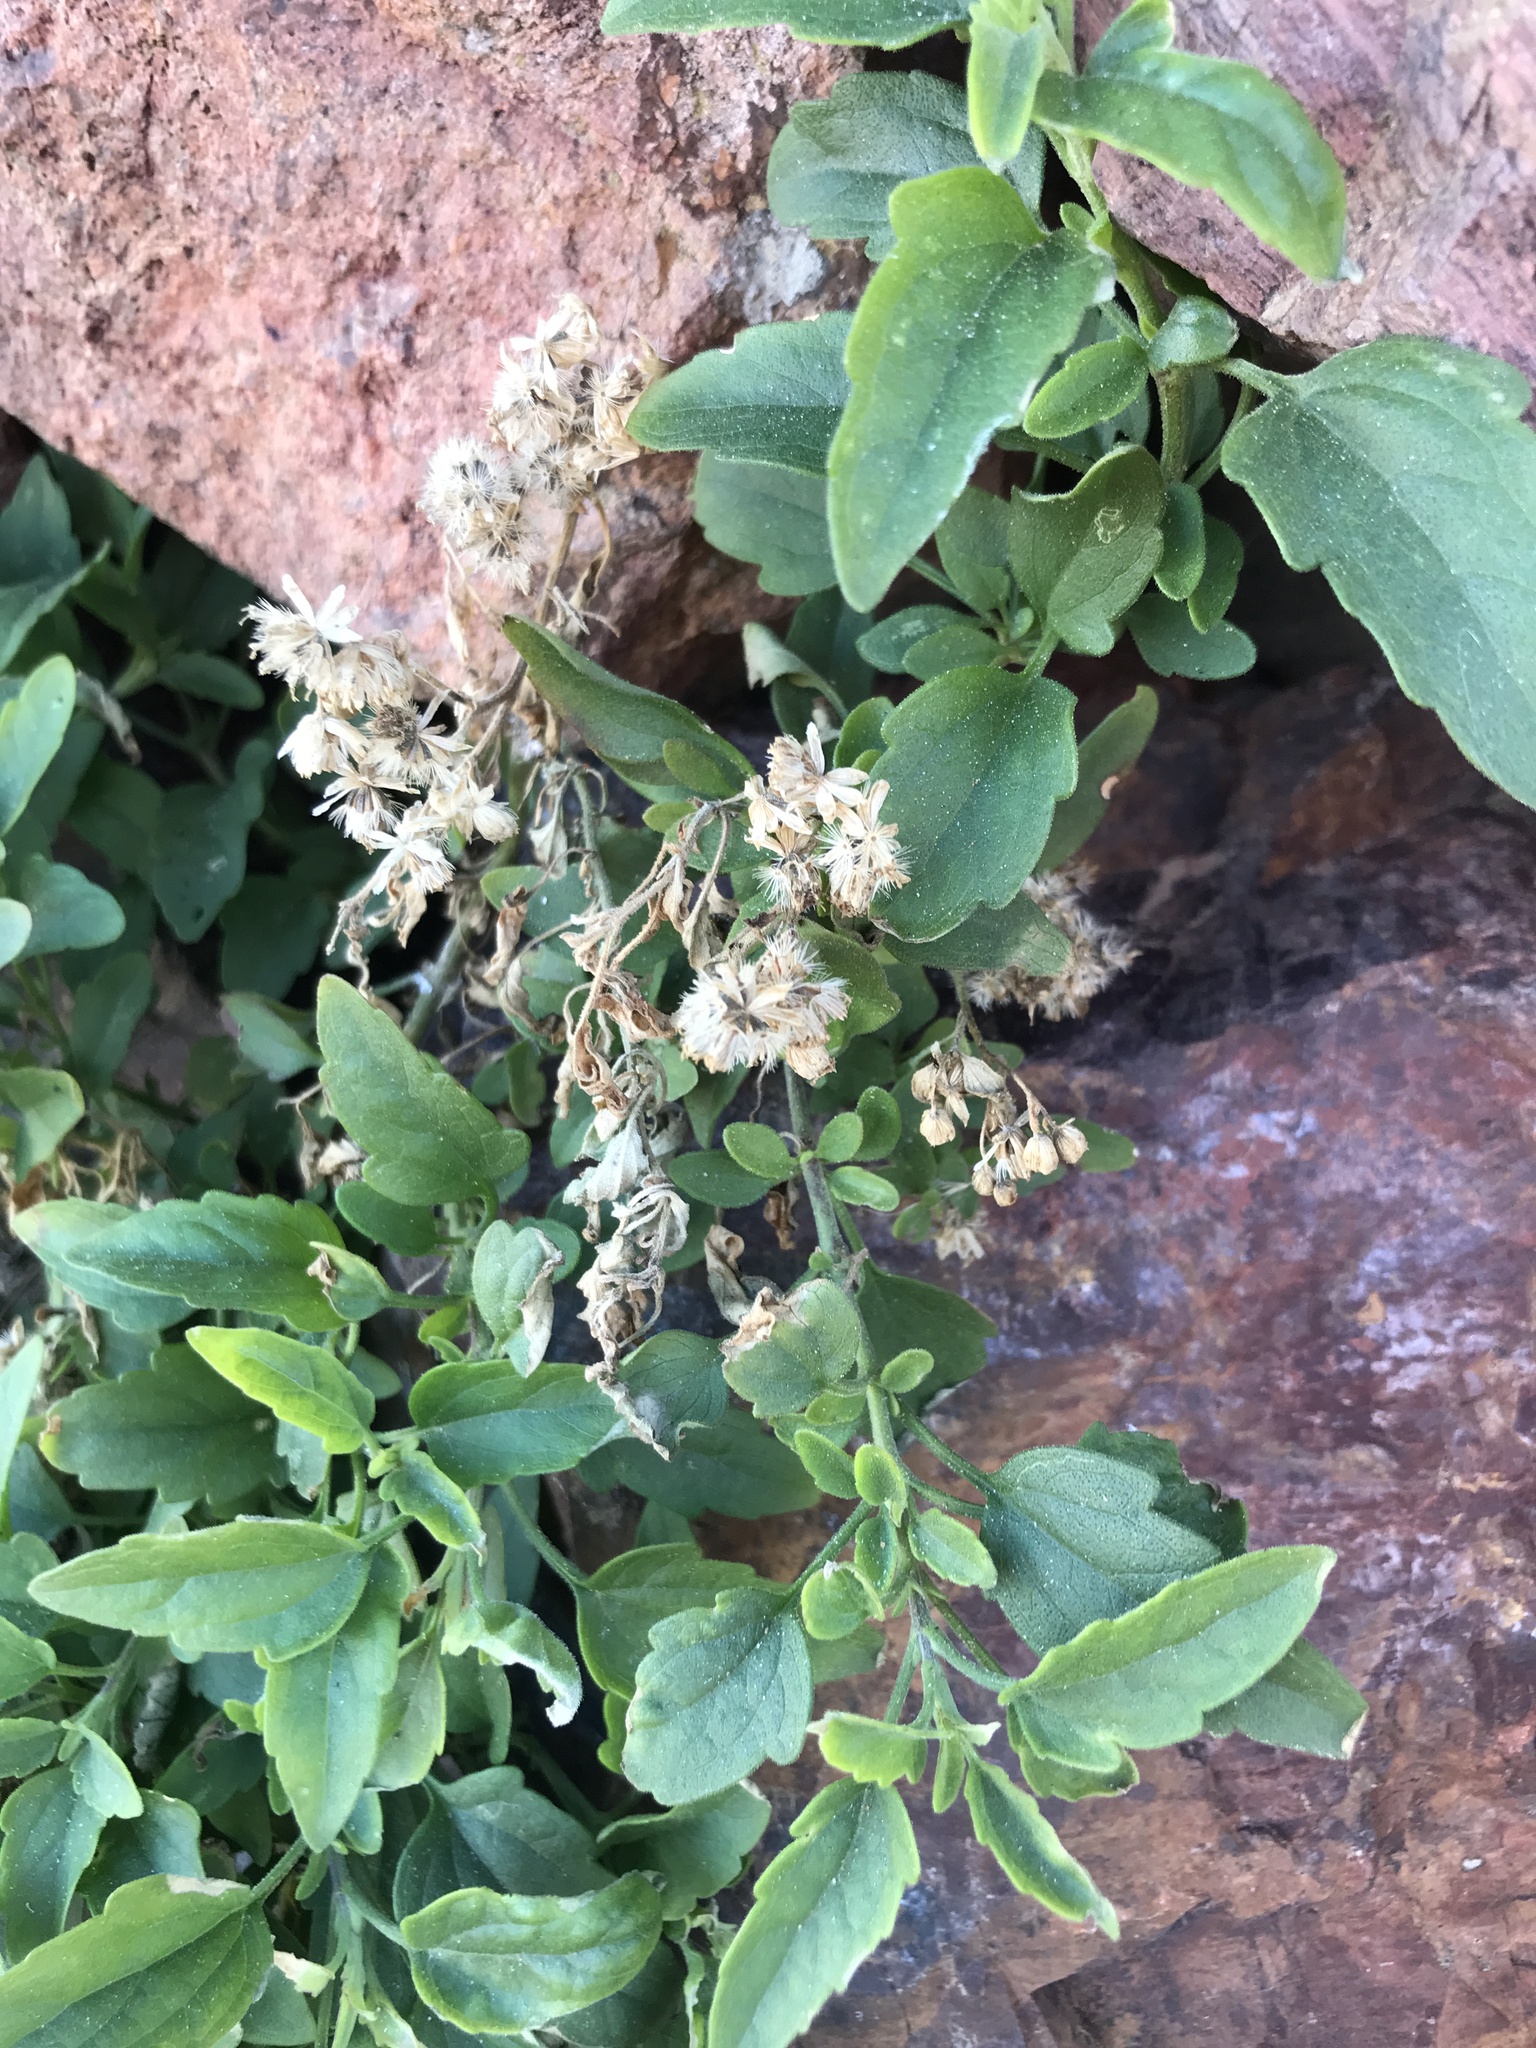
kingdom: Plantae
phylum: Tracheophyta
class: Magnoliopsida
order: Asterales
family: Asteraceae
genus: Hatschbachiella
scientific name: Hatschbachiella tweedieana
